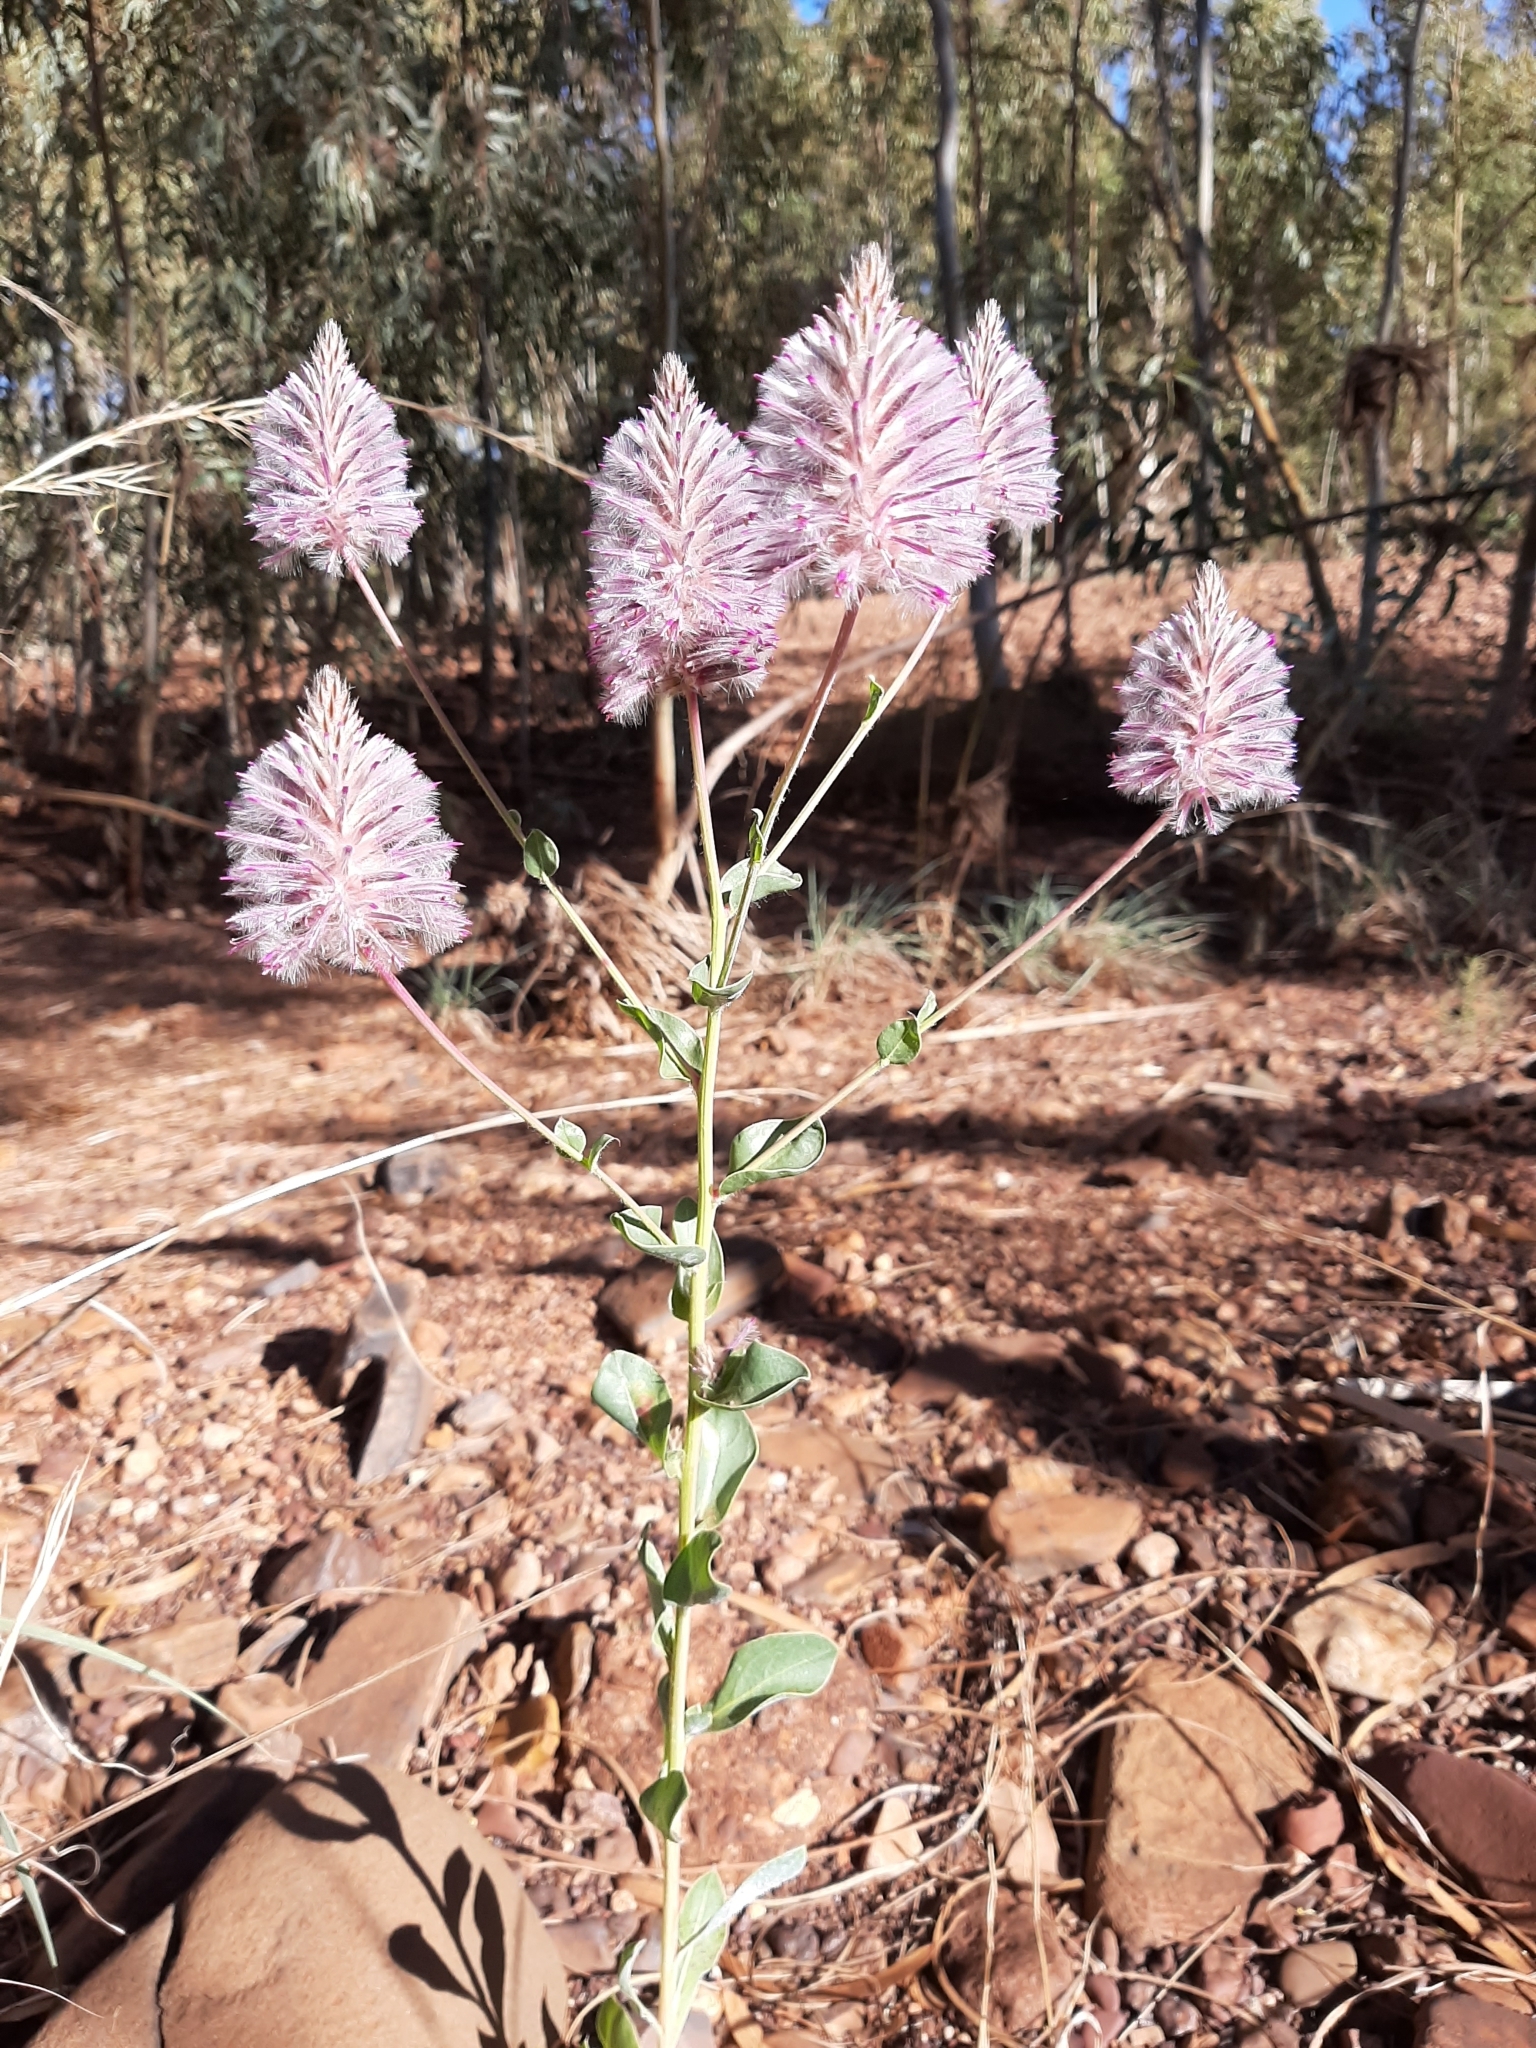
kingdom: Plantae
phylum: Tracheophyta
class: Magnoliopsida
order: Caryophyllales
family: Amaranthaceae
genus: Ptilotus
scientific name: Ptilotus exaltatus
